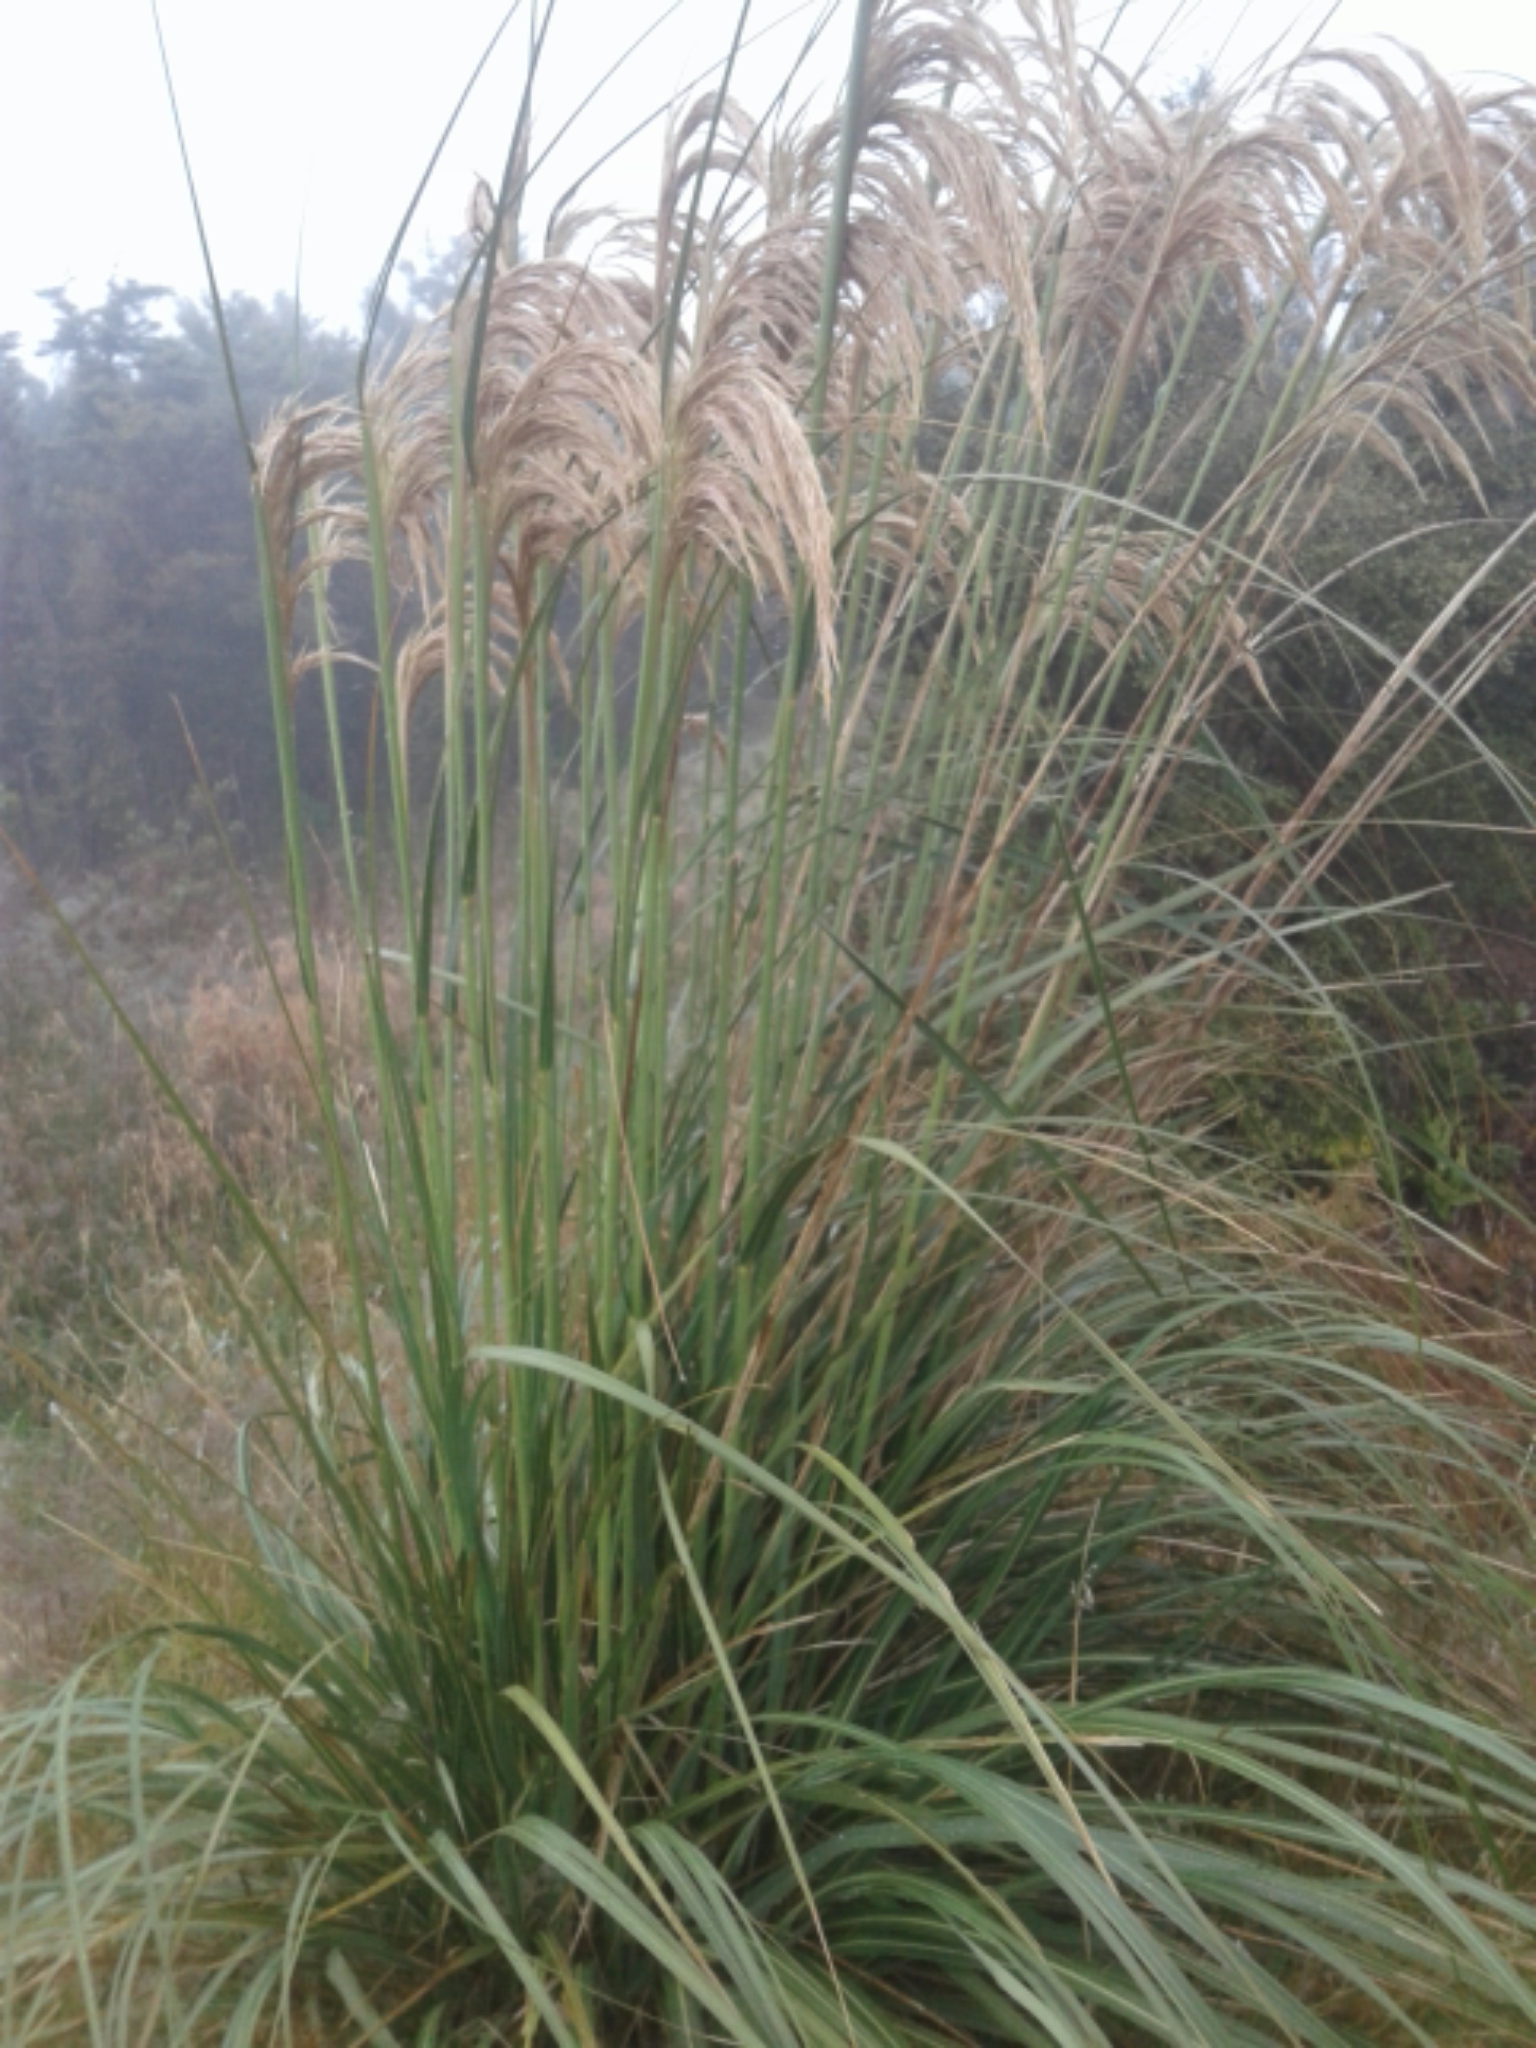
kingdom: Plantae
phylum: Tracheophyta
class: Liliopsida
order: Poales
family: Poaceae
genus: Austroderia
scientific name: Austroderia richardii
